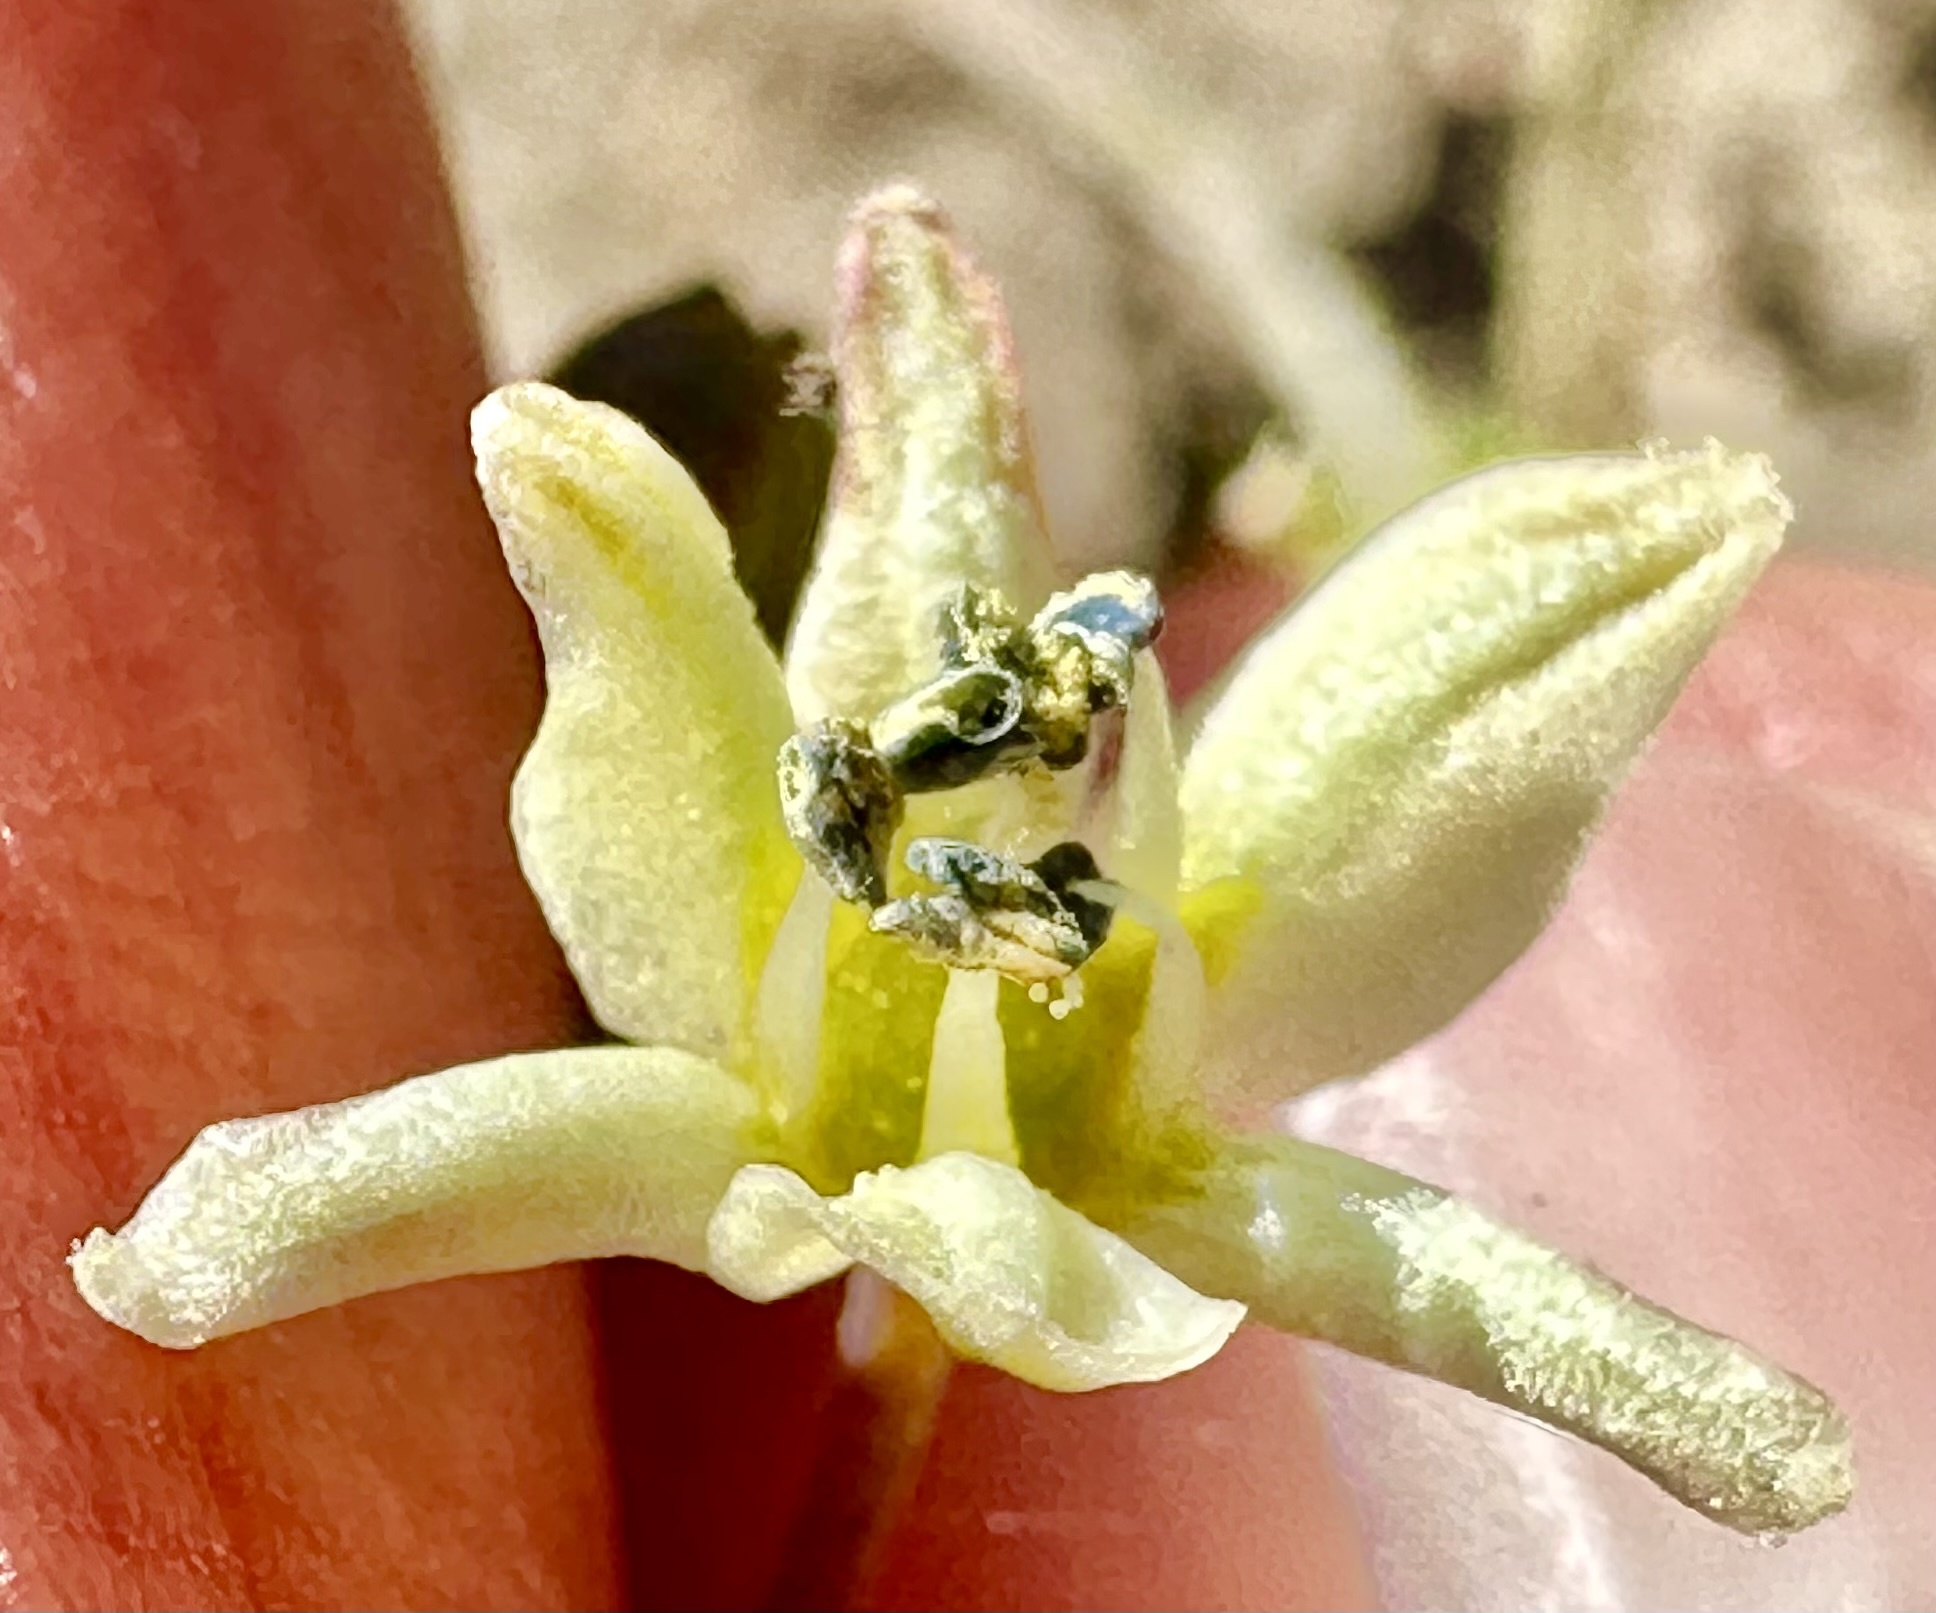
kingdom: Plantae
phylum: Tracheophyta
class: Liliopsida
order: Asparagales
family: Asparagaceae
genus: Muilla
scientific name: Muilla maritima
